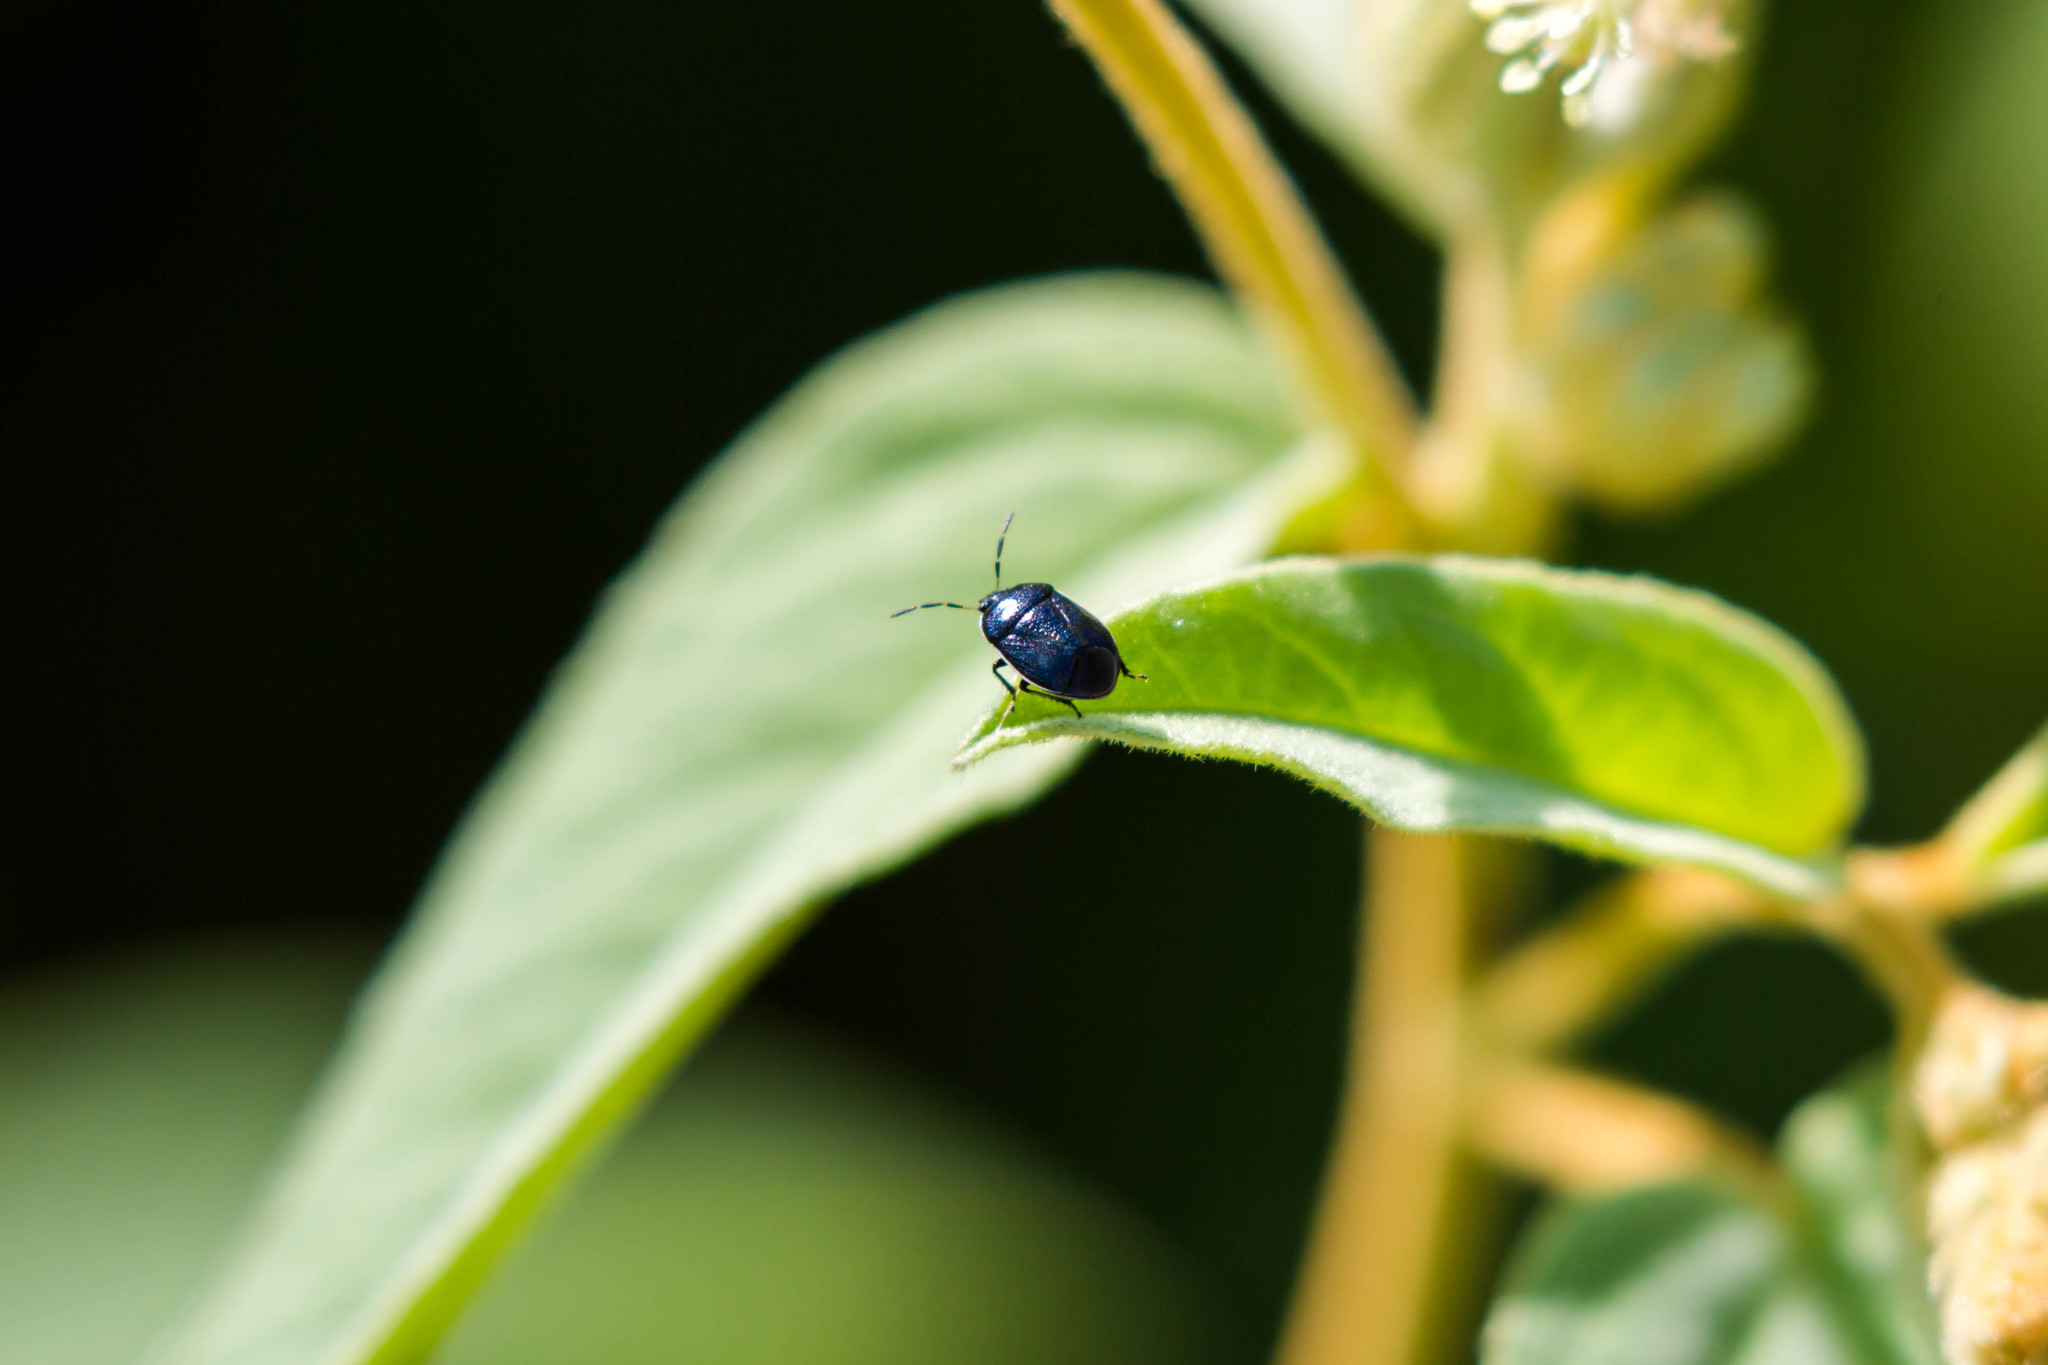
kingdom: Animalia
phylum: Arthropoda
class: Insecta
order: Hemiptera
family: Cydnidae
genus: Sehirus
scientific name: Sehirus cinctus
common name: White-margined burrower bug
